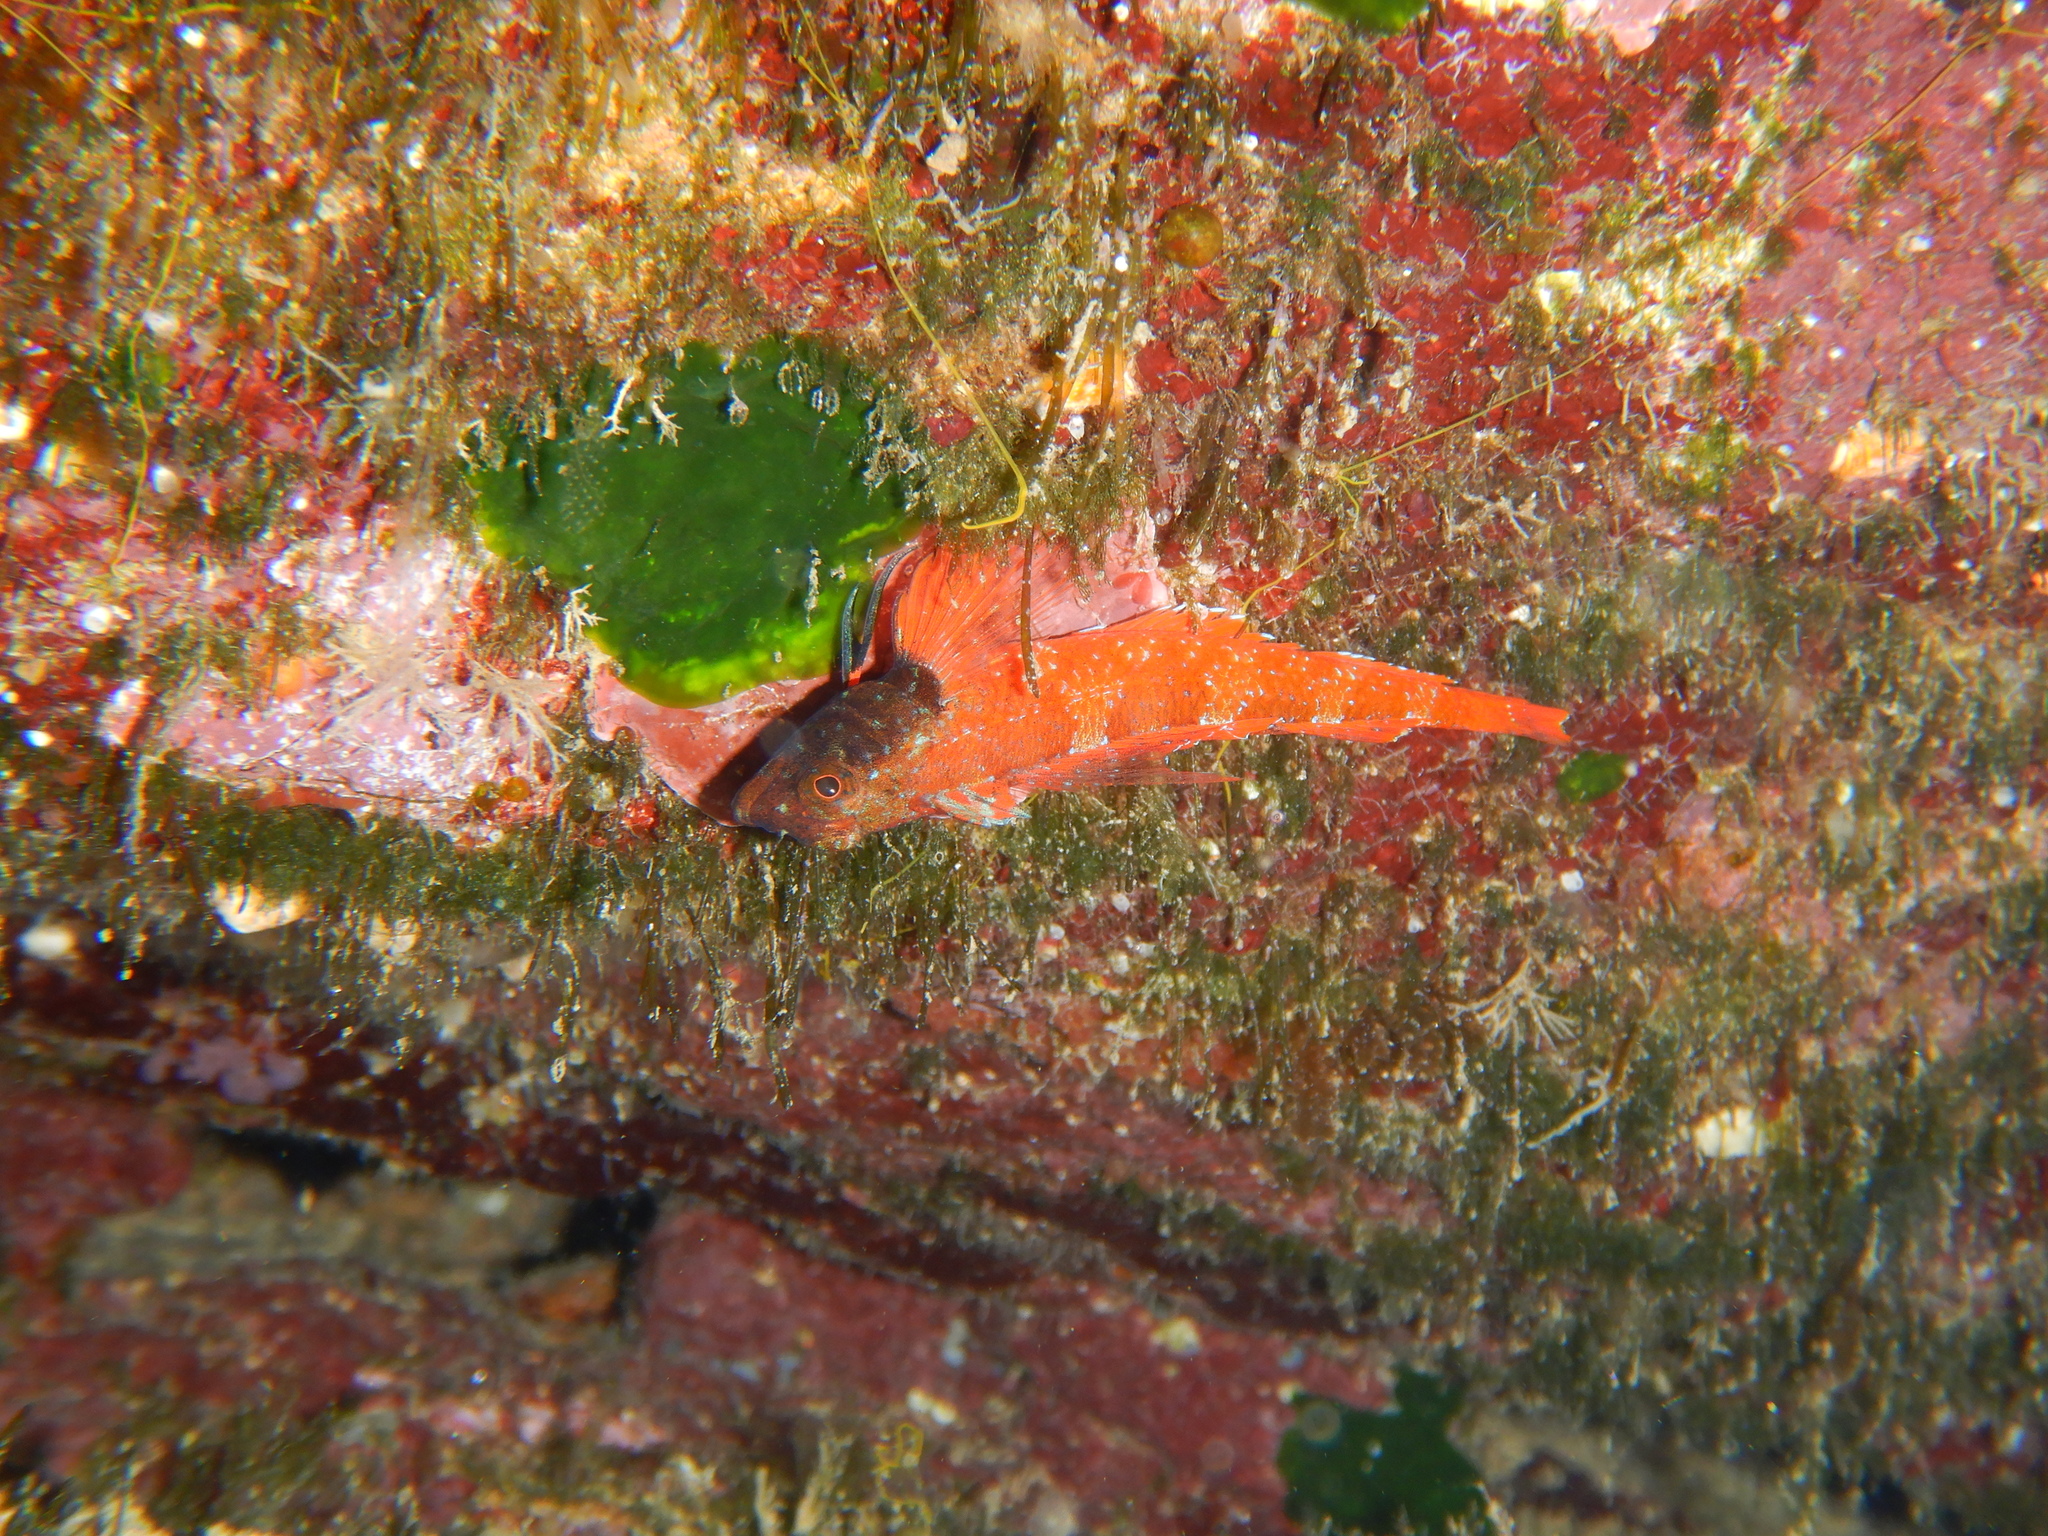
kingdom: Animalia
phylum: Chordata
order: Perciformes
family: Tripterygiidae
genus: Tripterygion
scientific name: Tripterygion tripteronotum
